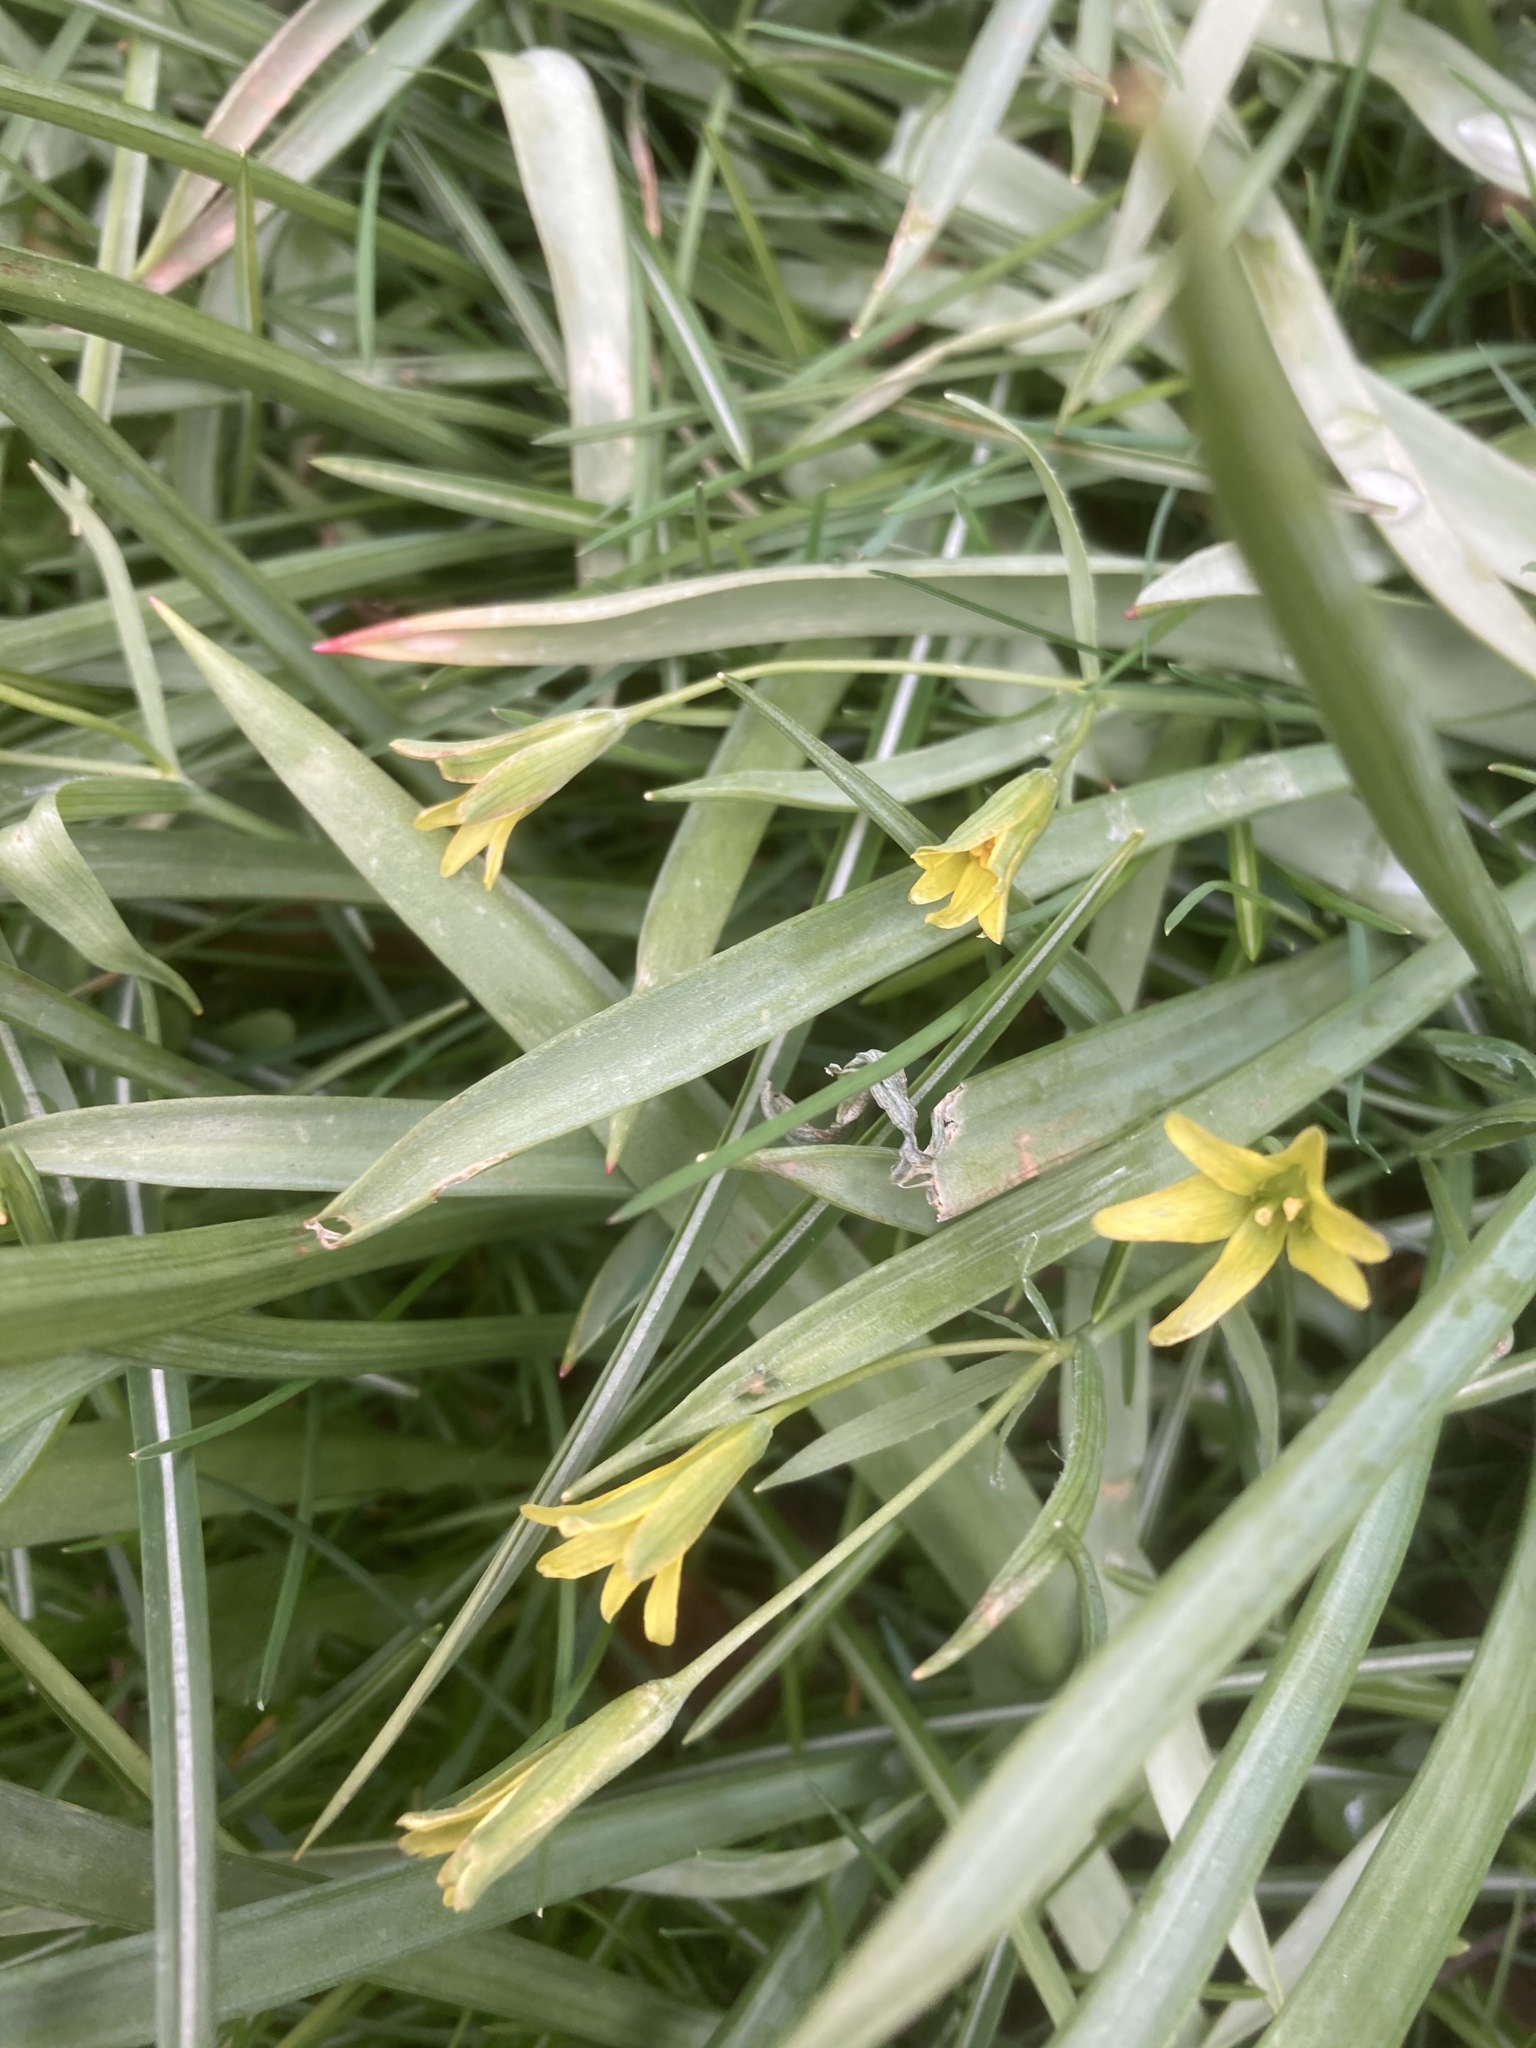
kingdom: Plantae
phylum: Tracheophyta
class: Liliopsida
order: Liliales
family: Liliaceae
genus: Gagea
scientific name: Gagea lutea
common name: Yellow star-of-bethlehem
